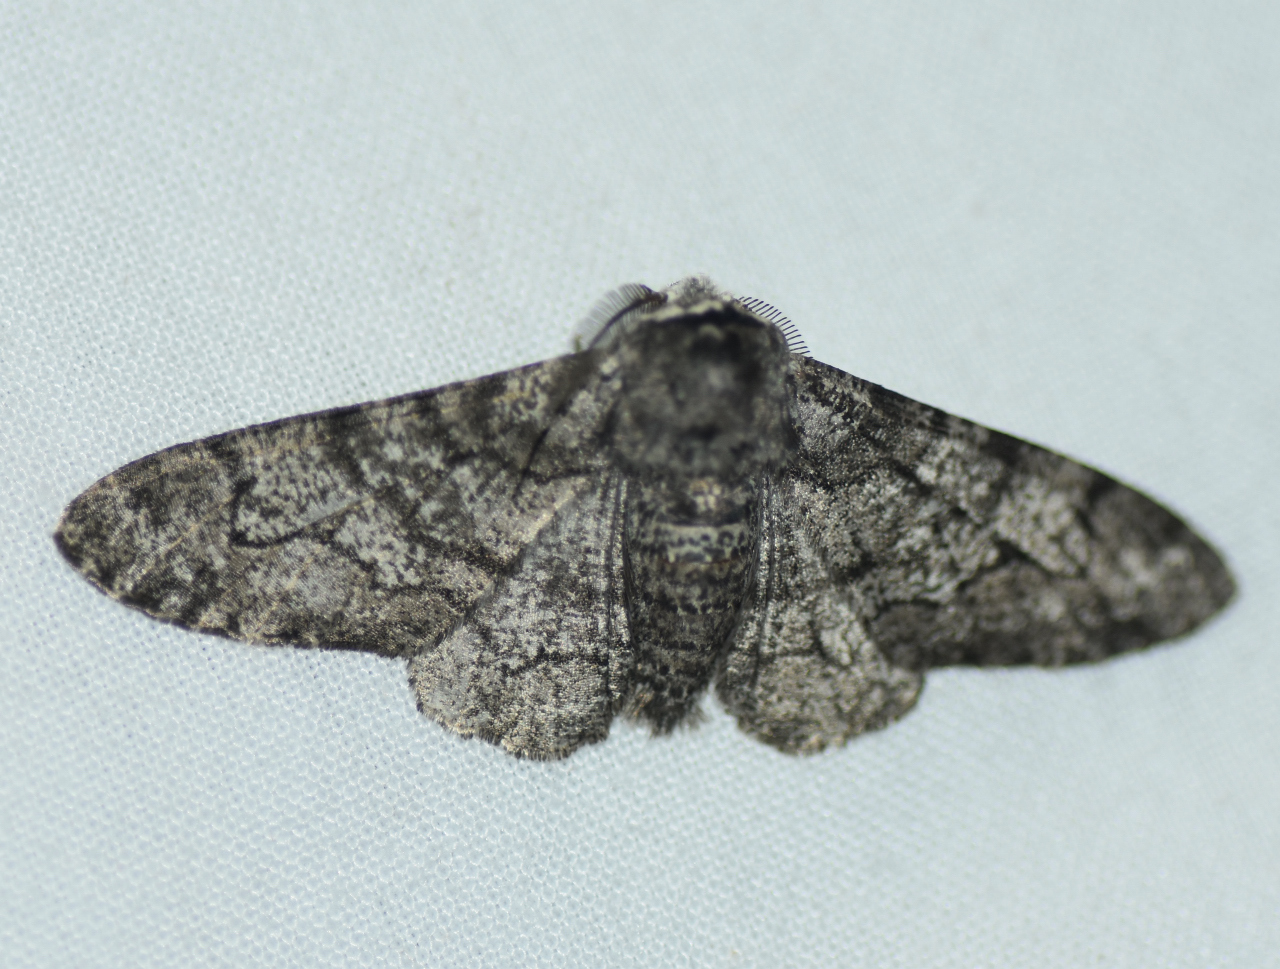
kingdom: Animalia
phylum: Arthropoda
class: Insecta
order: Lepidoptera
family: Geometridae
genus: Biston
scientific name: Biston betularia
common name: Peppered moth
